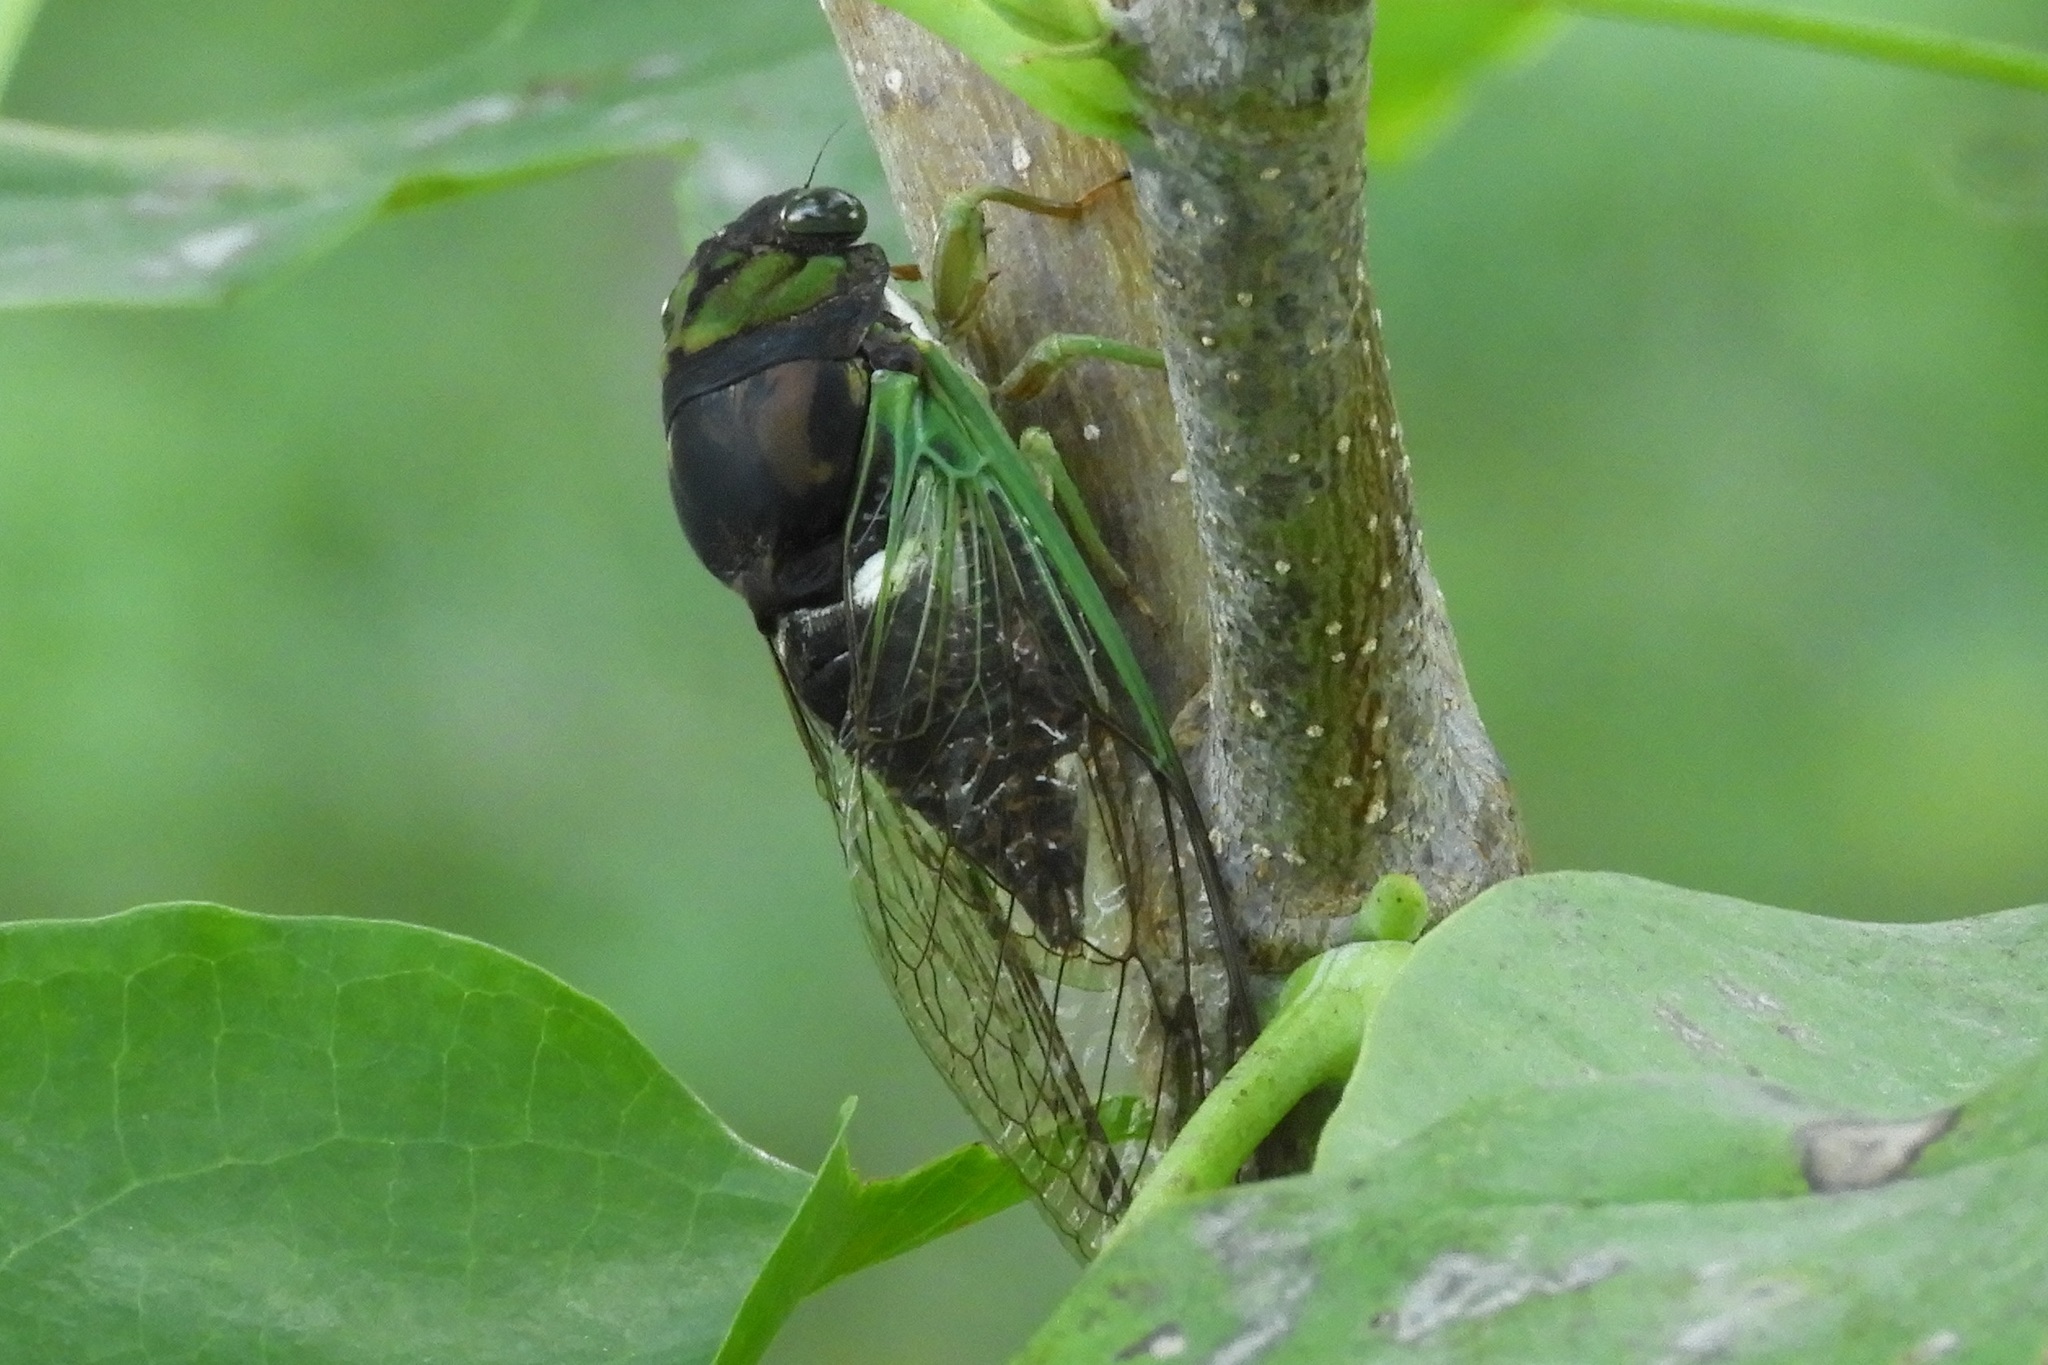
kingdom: Animalia
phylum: Arthropoda
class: Insecta
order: Hemiptera
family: Cicadidae
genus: Neotibicen
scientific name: Neotibicen tibicen
